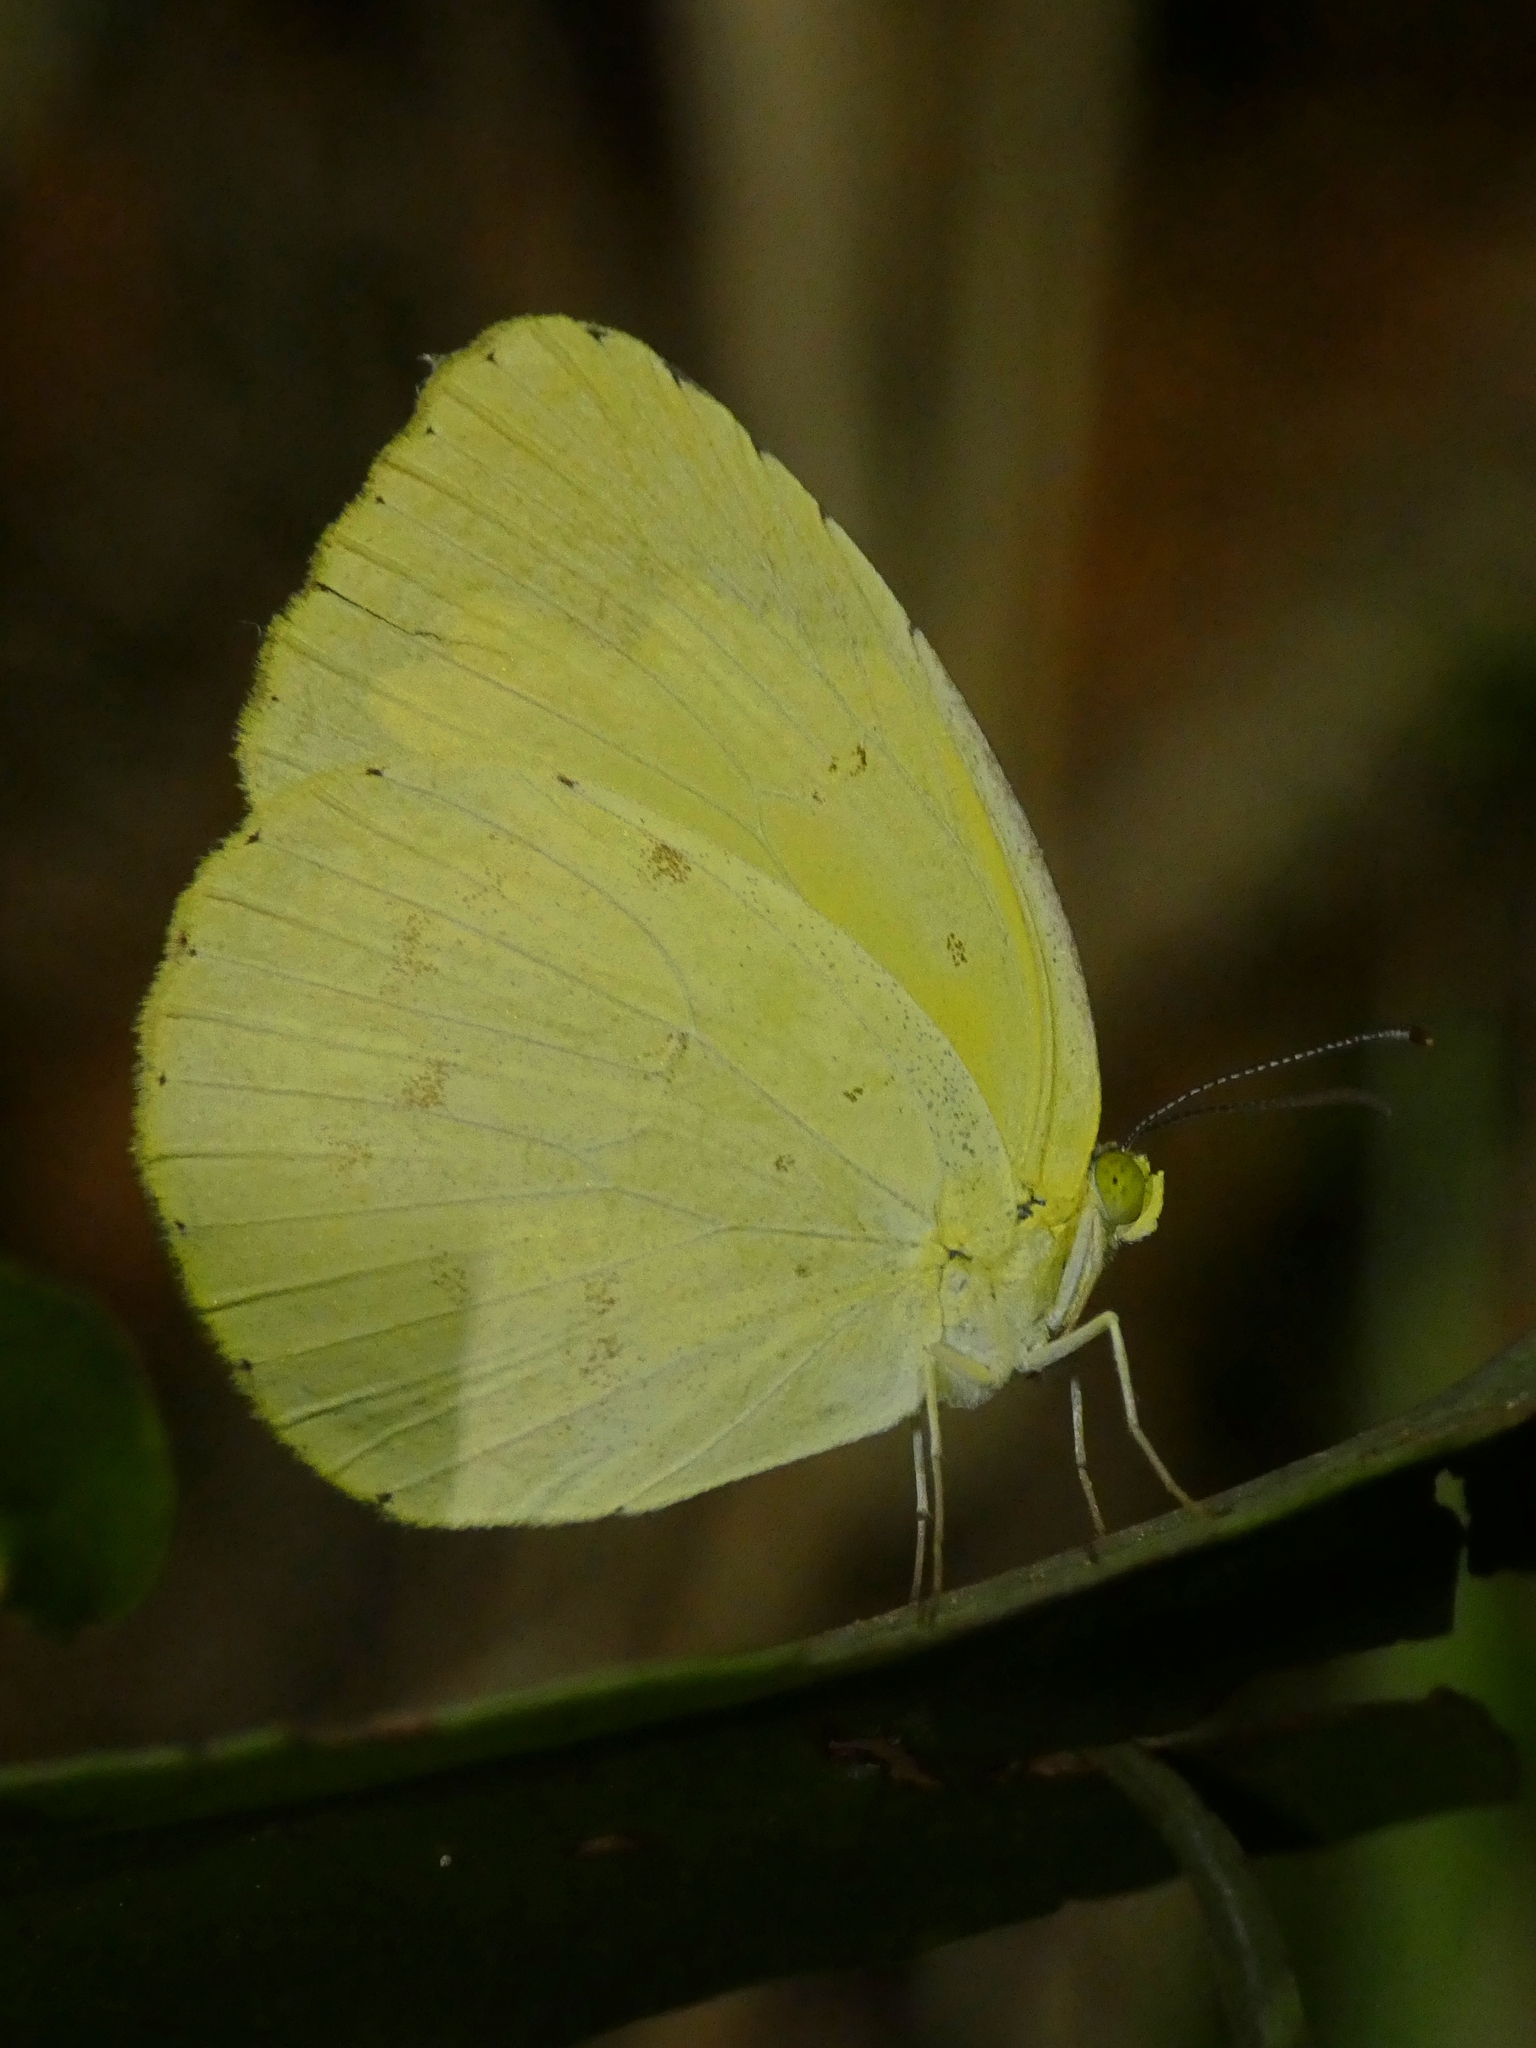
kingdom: Animalia
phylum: Arthropoda
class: Insecta
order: Lepidoptera
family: Pieridae
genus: Eurema
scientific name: Eurema hecabe
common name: Pale grass yellow
